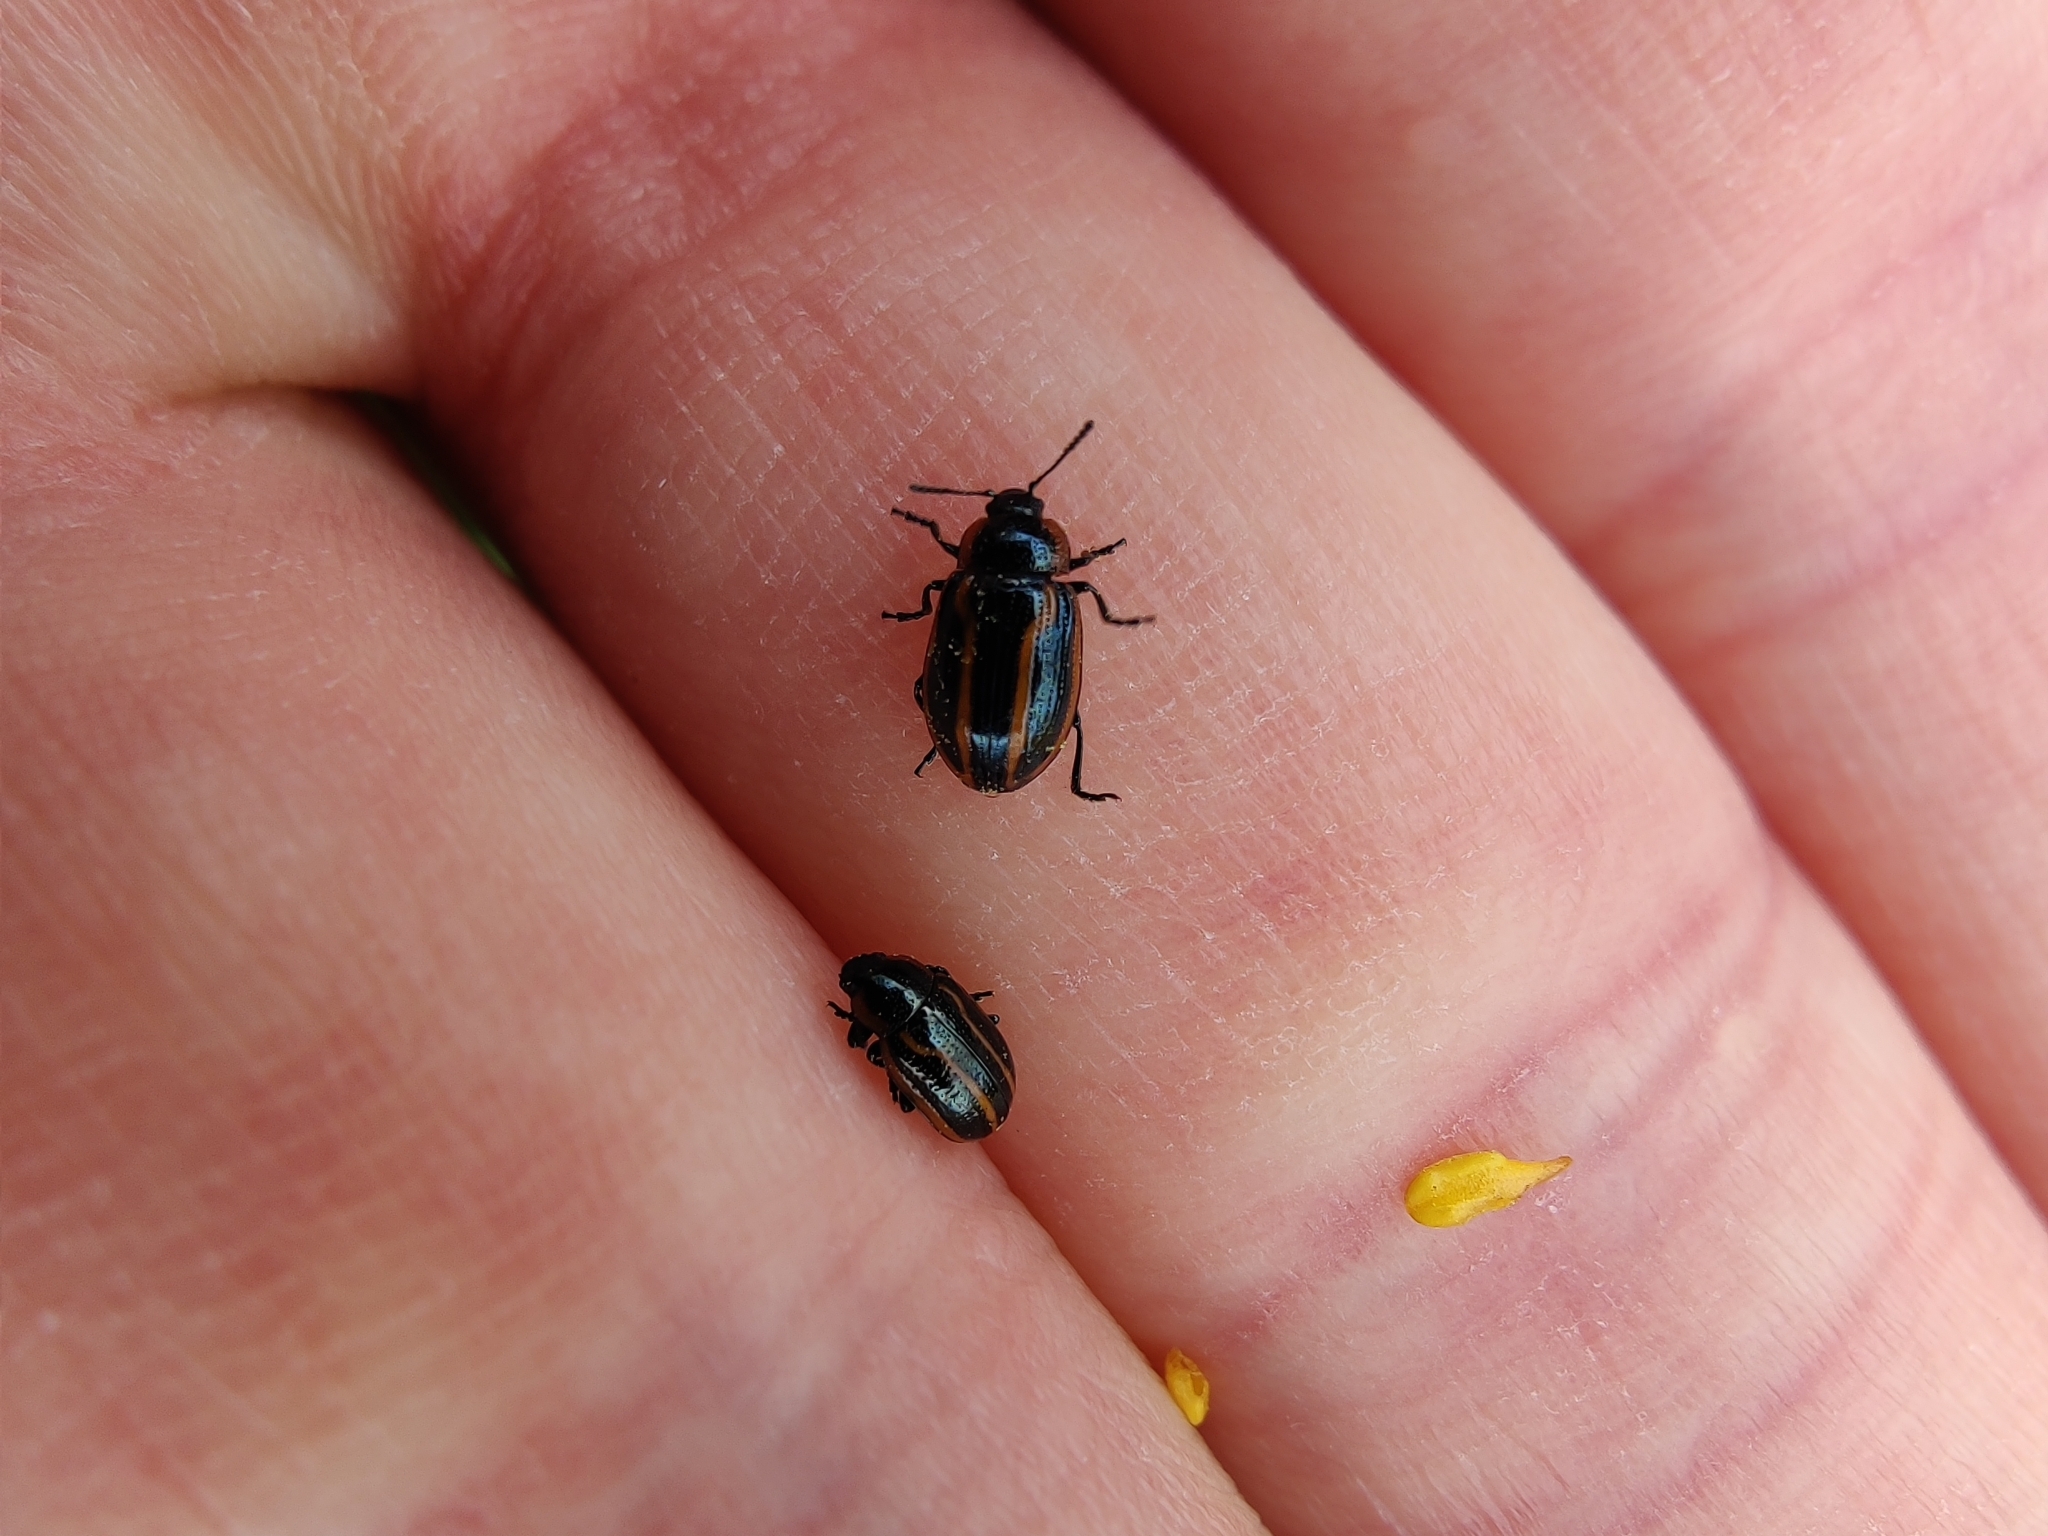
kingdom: Animalia
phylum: Arthropoda
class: Insecta
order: Coleoptera
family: Chrysomelidae
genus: Prasocuris
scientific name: Prasocuris hannoveriana
